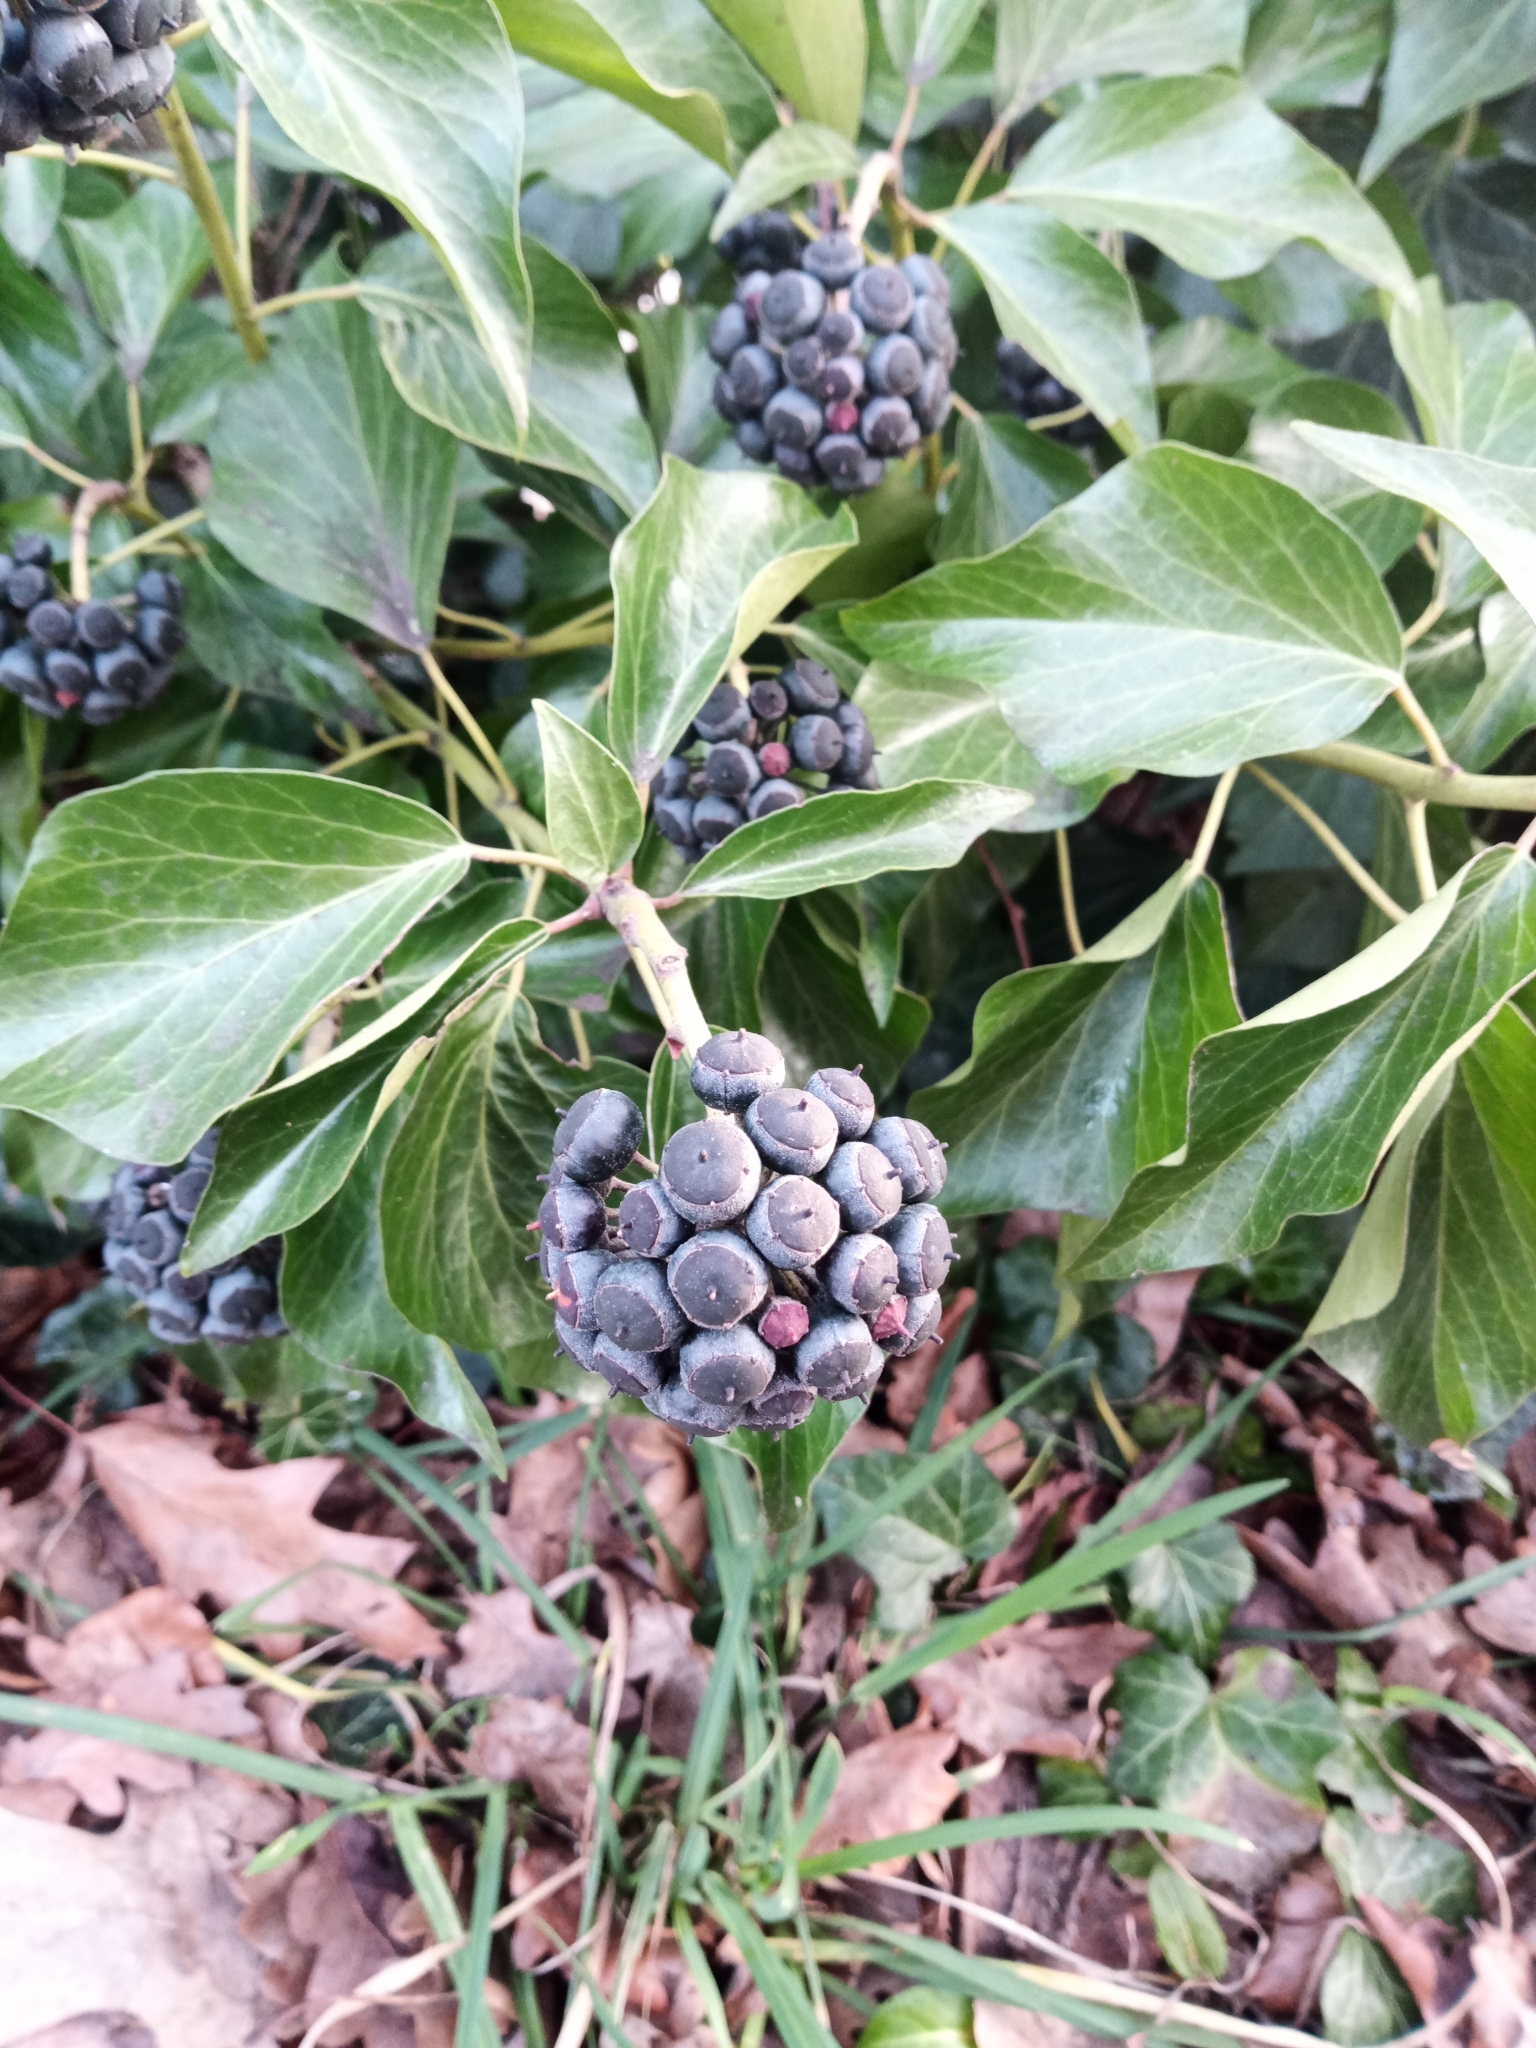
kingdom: Plantae
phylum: Tracheophyta
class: Magnoliopsida
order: Apiales
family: Araliaceae
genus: Hedera
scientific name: Hedera helix
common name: Ivy
